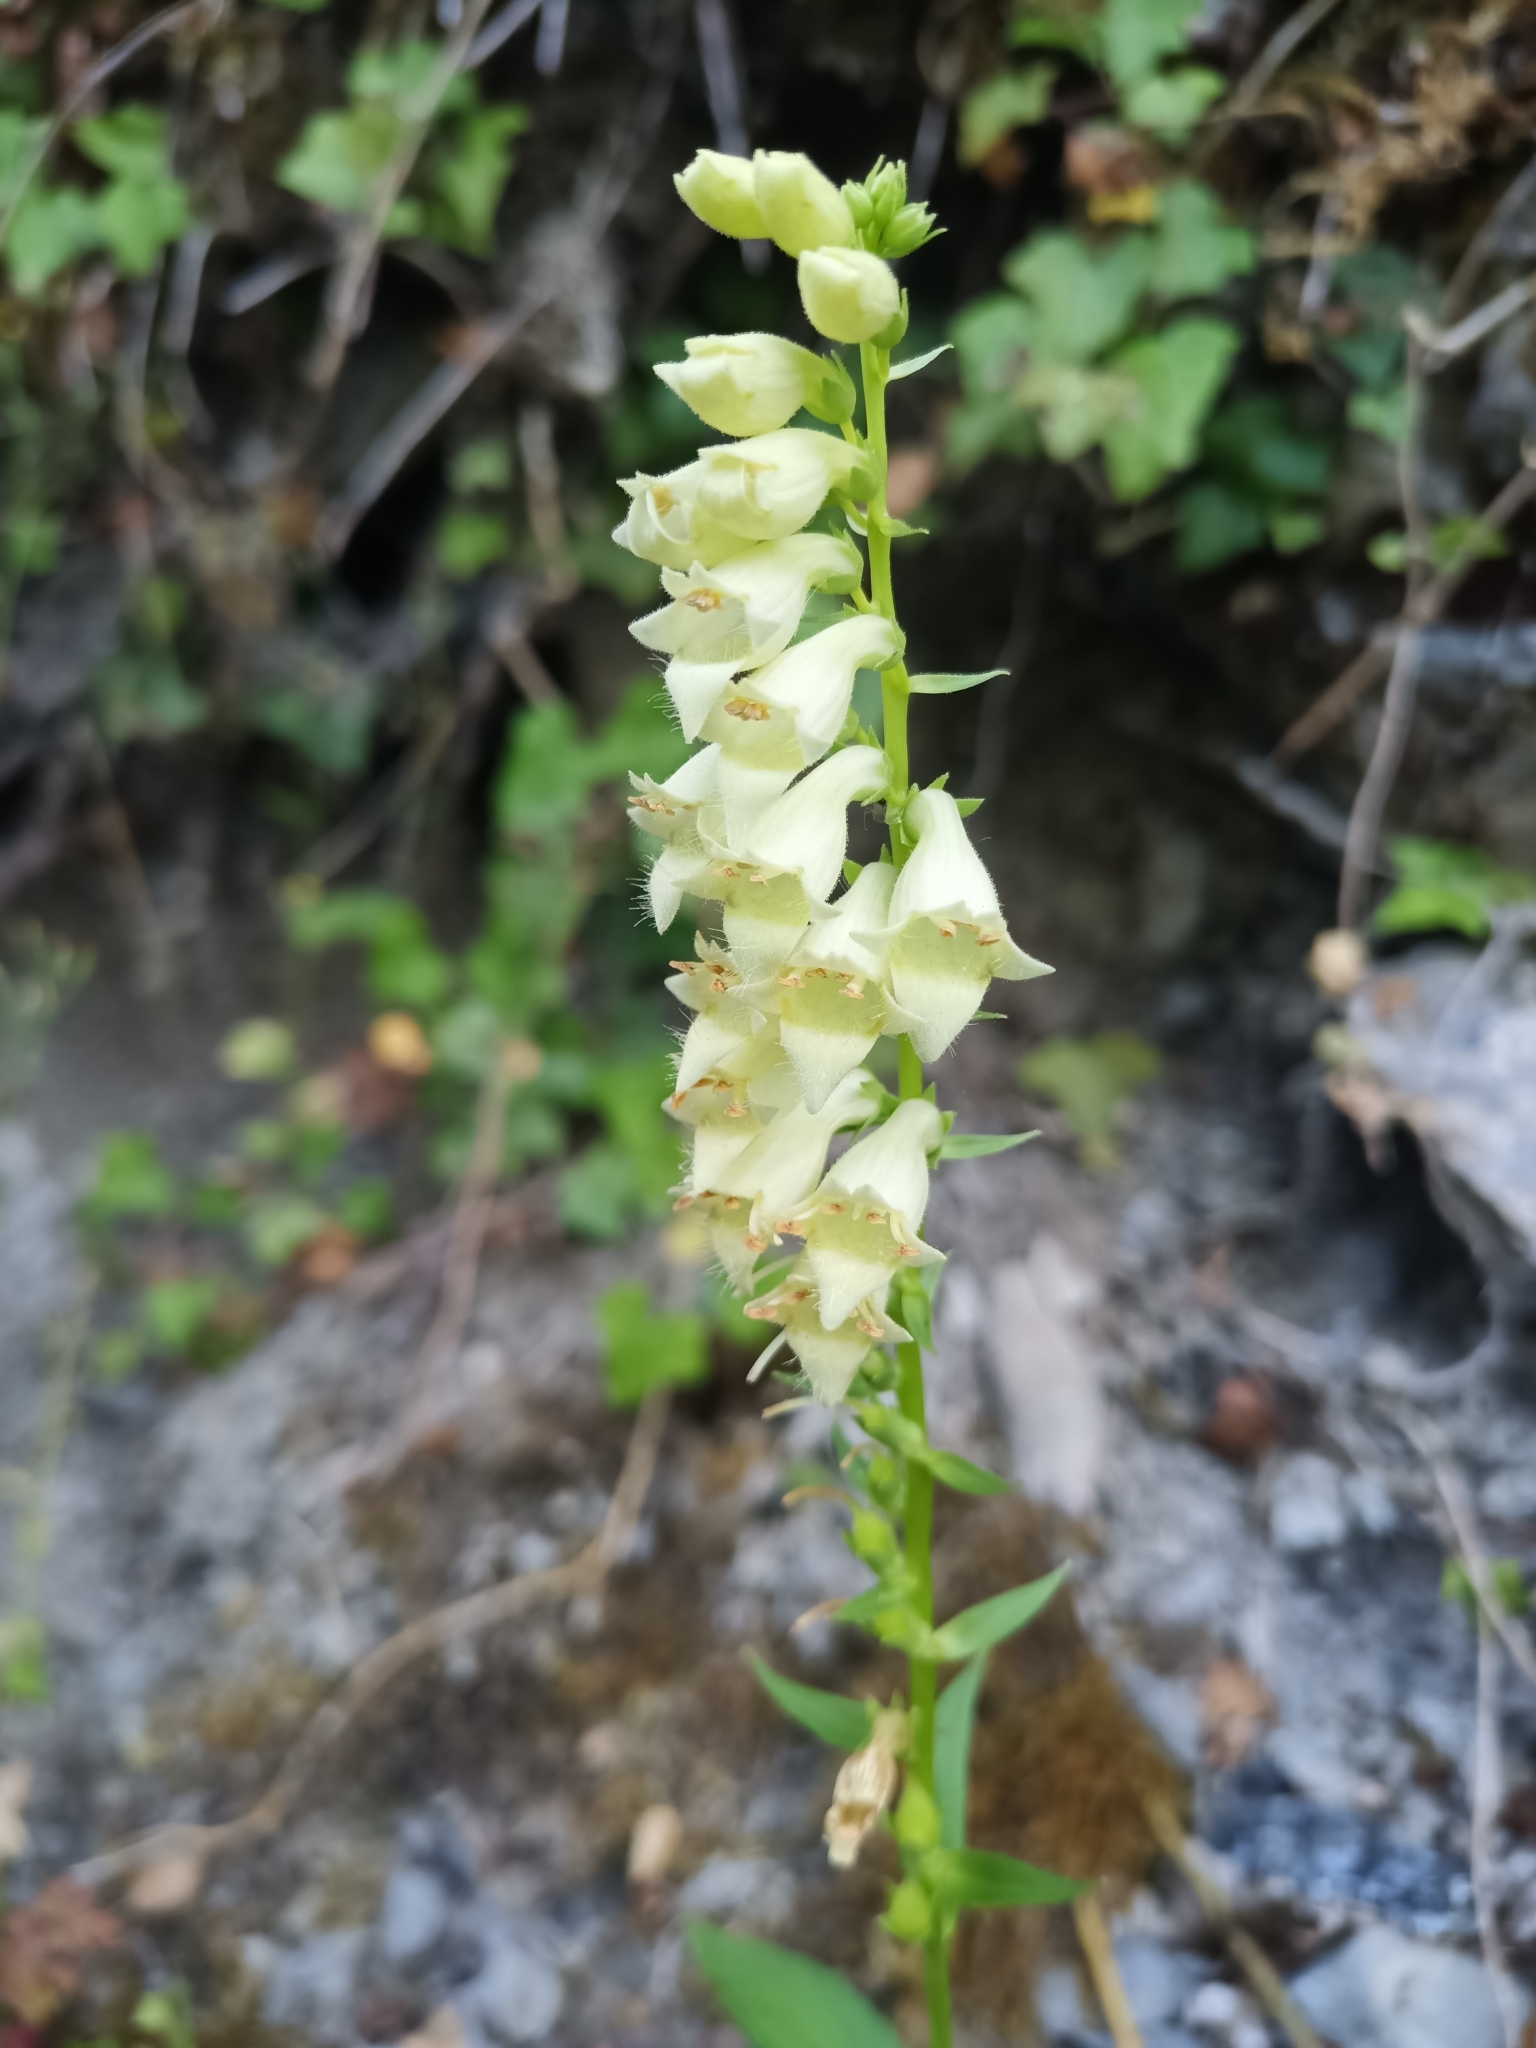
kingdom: Plantae
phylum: Tracheophyta
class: Magnoliopsida
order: Lamiales
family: Plantaginaceae
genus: Digitalis
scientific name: Digitalis lutea
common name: Straw foxglove
